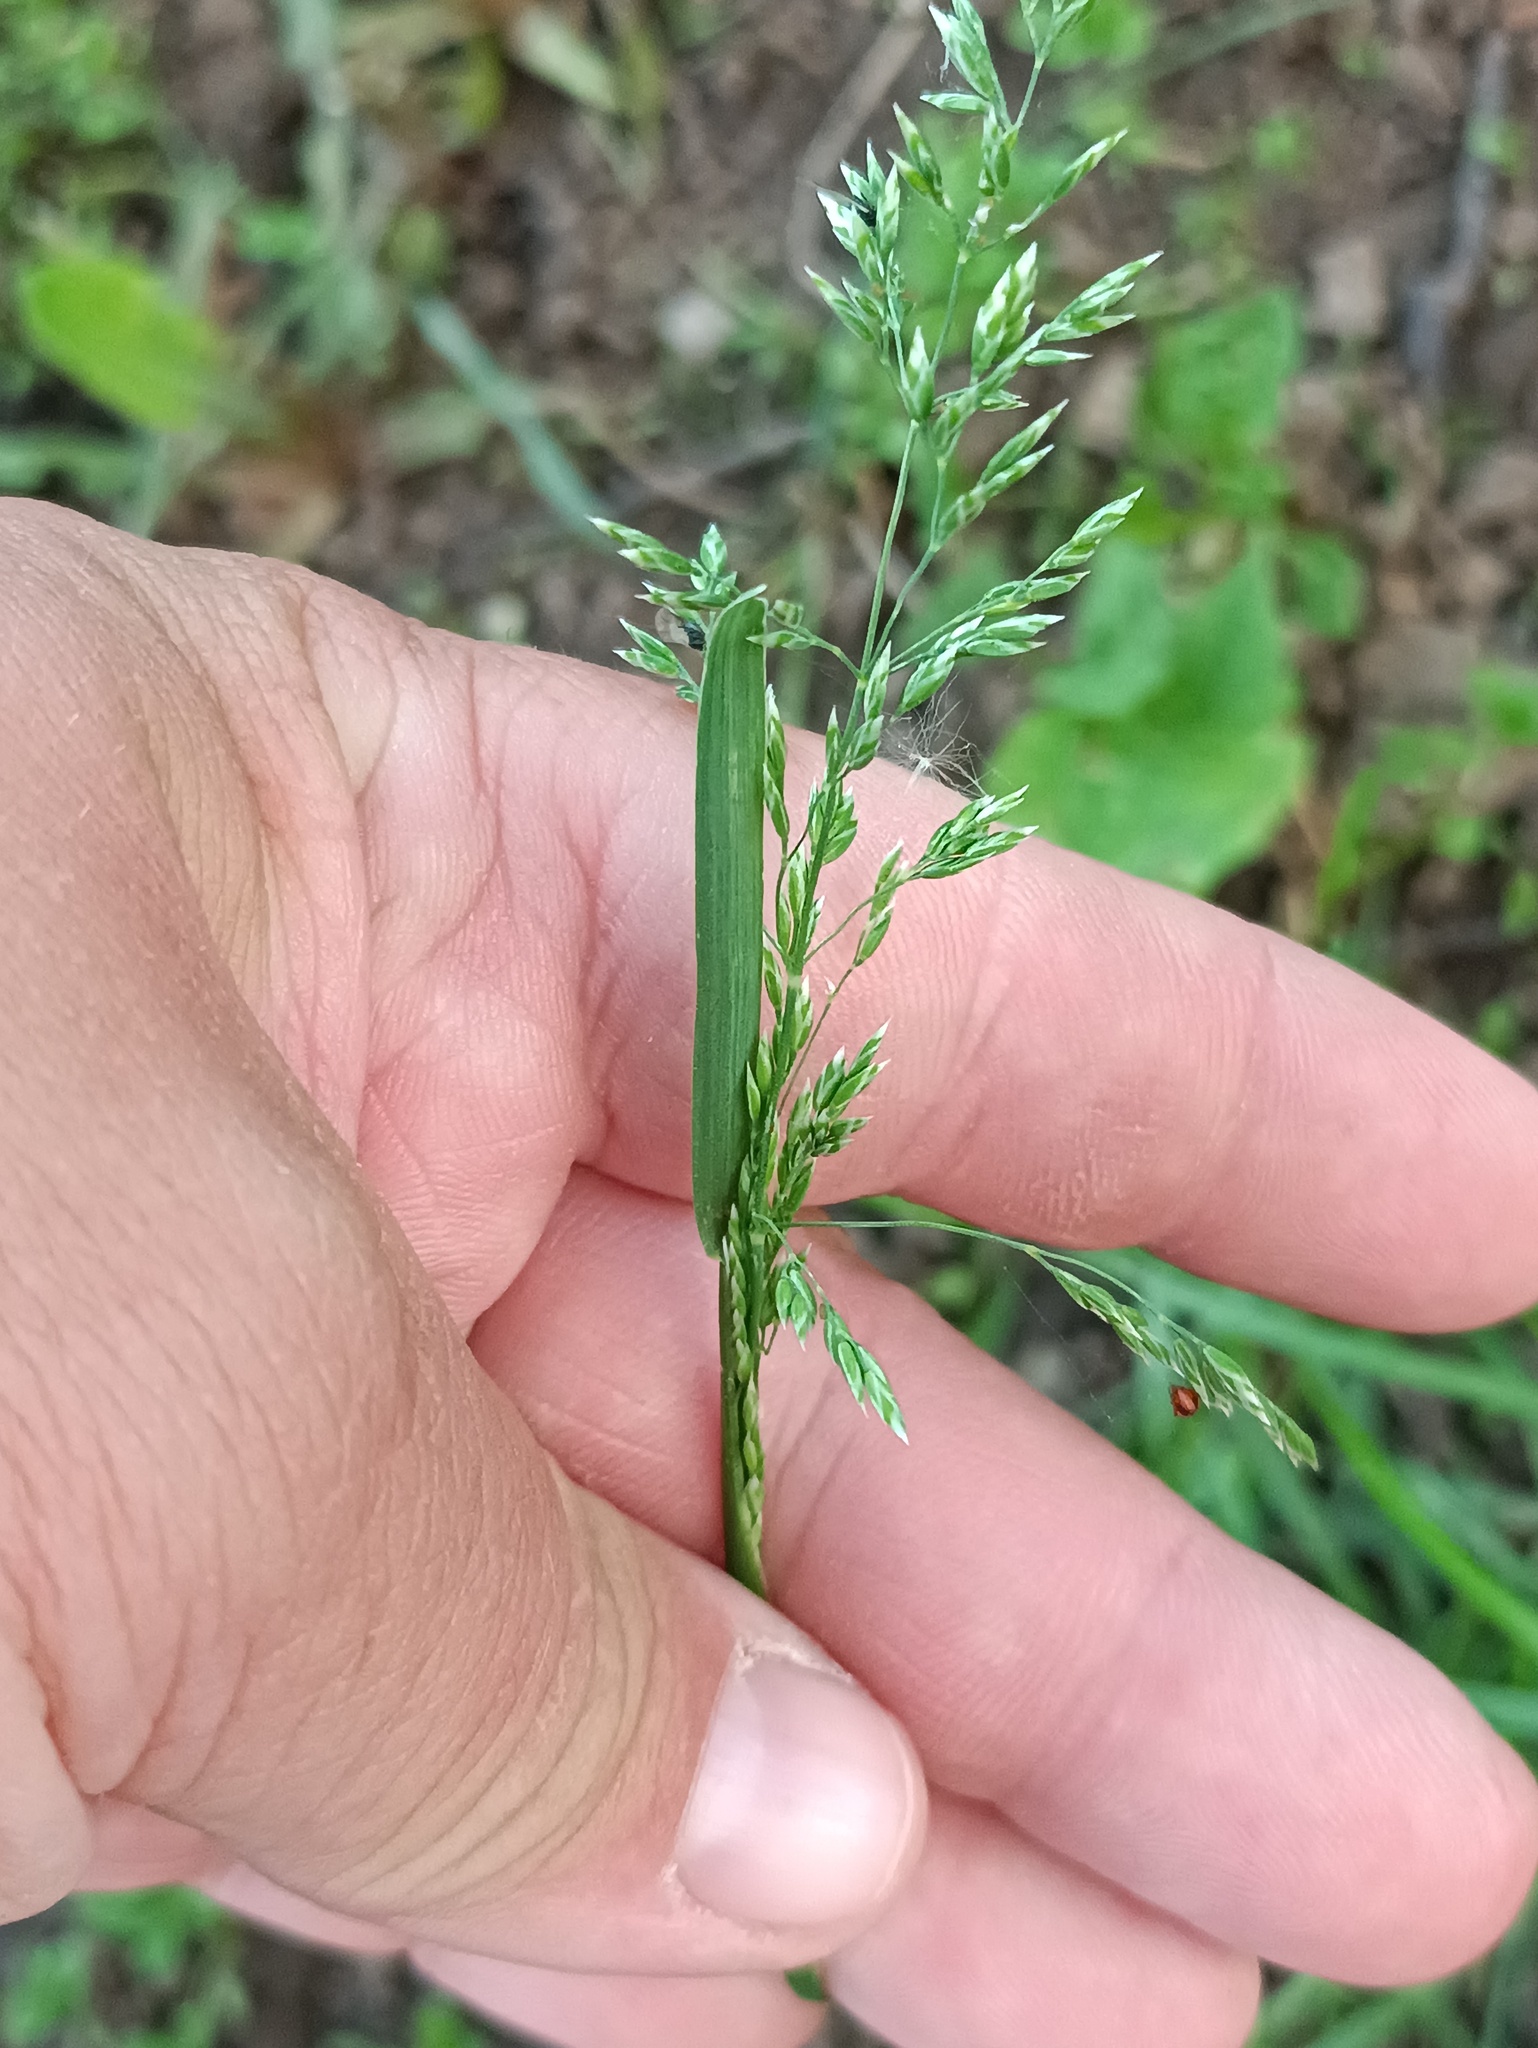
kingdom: Plantae
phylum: Tracheophyta
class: Liliopsida
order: Poales
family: Poaceae
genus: Poa
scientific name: Poa pratensis
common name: Kentucky bluegrass
